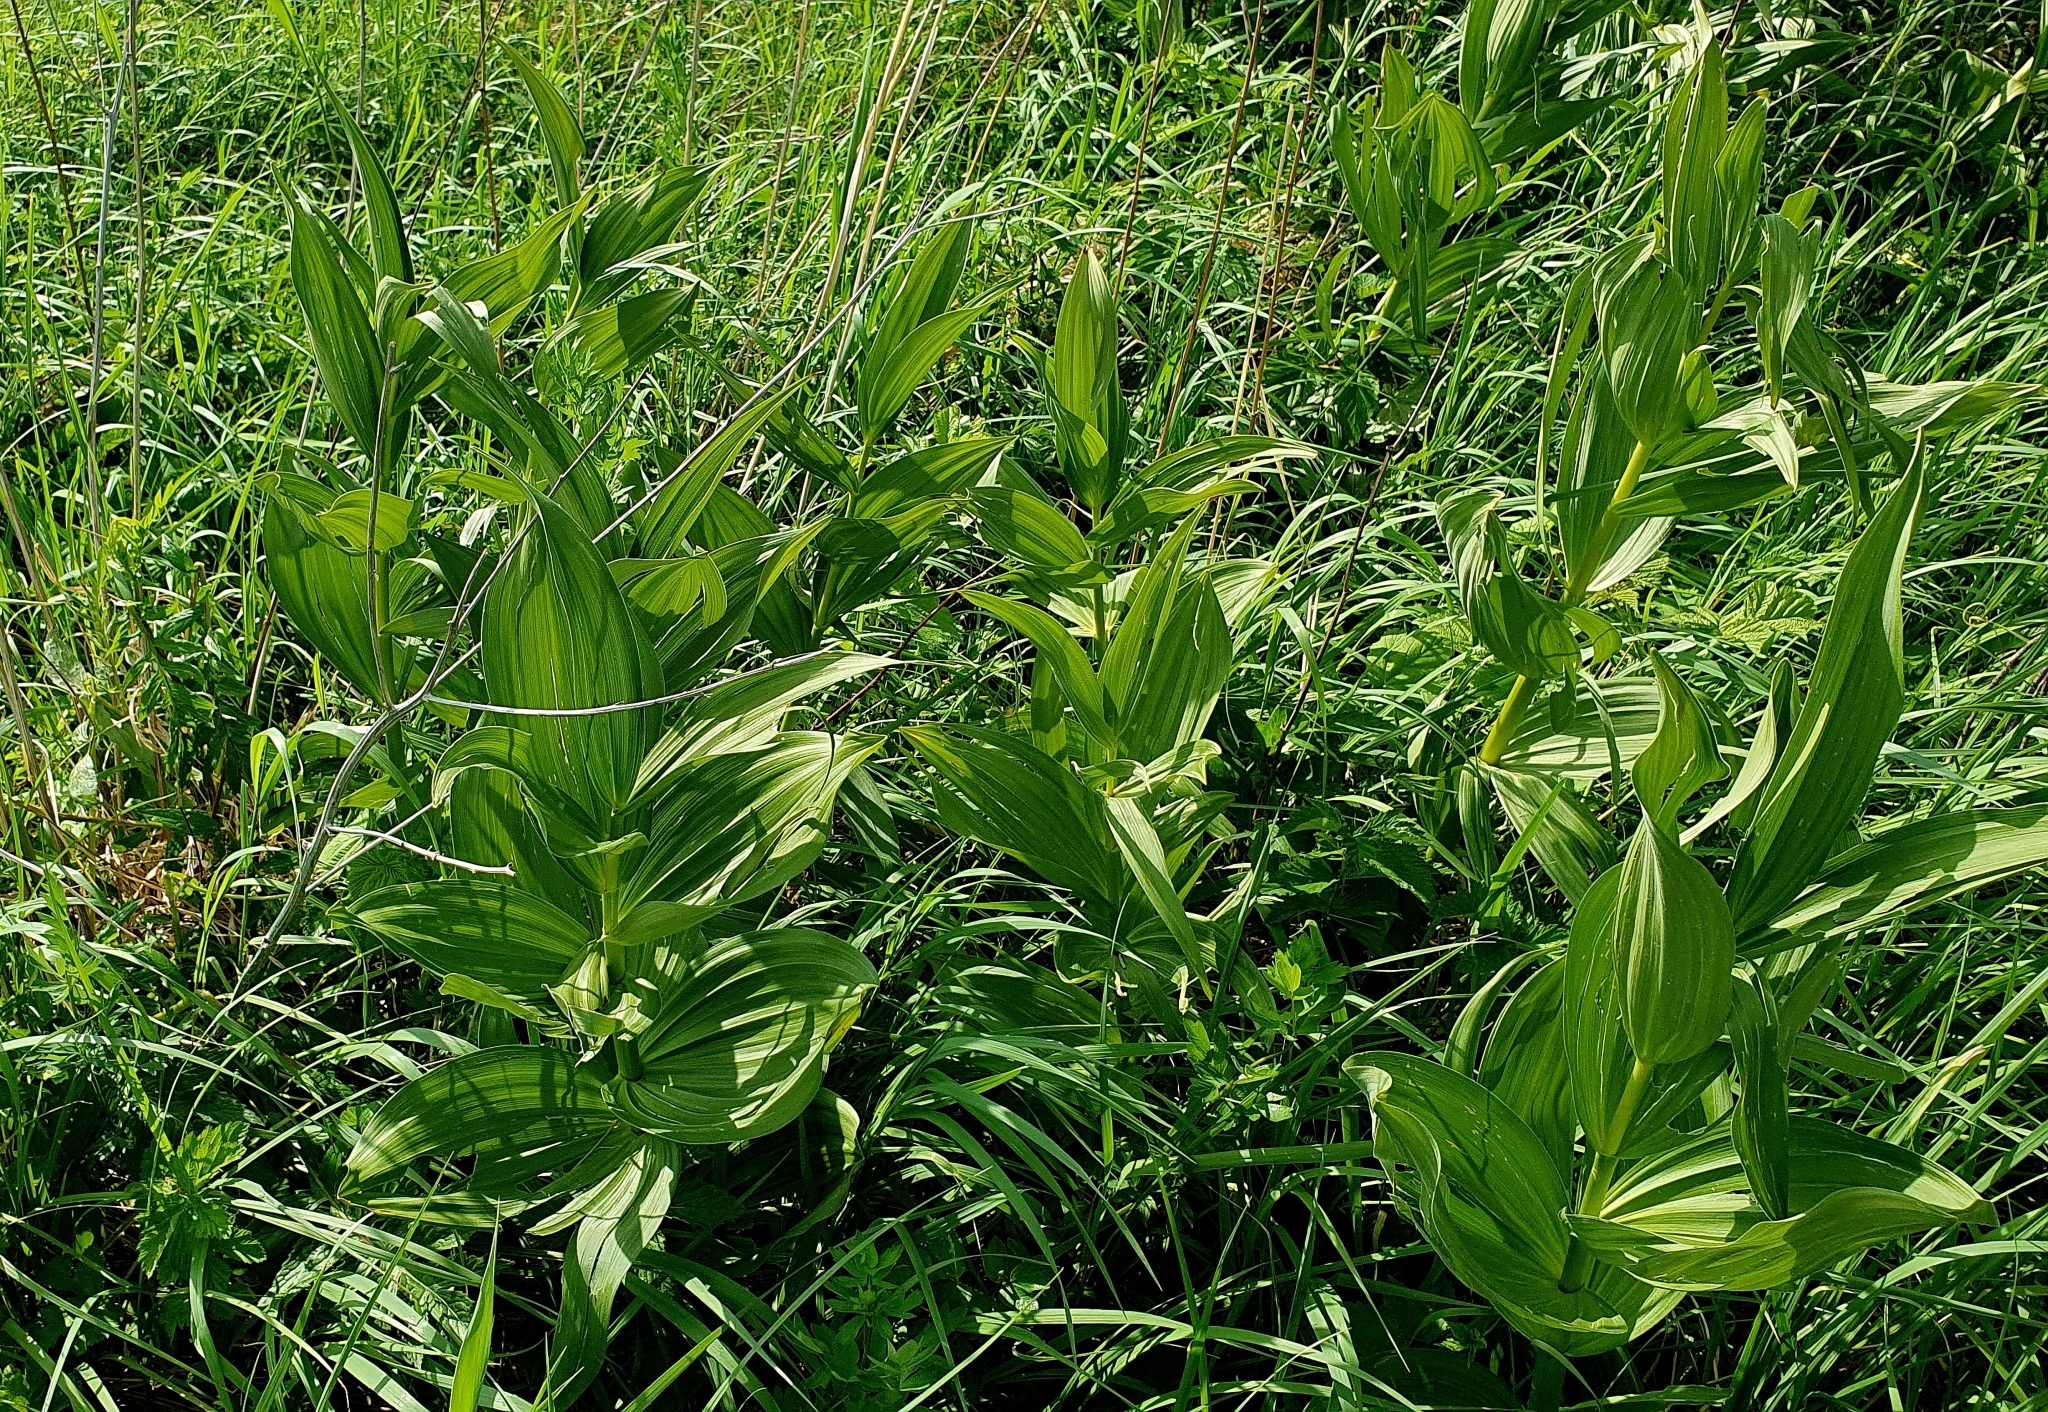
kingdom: Plantae
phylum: Tracheophyta
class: Liliopsida
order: Liliales
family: Melanthiaceae
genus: Veratrum
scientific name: Veratrum lobelianum
